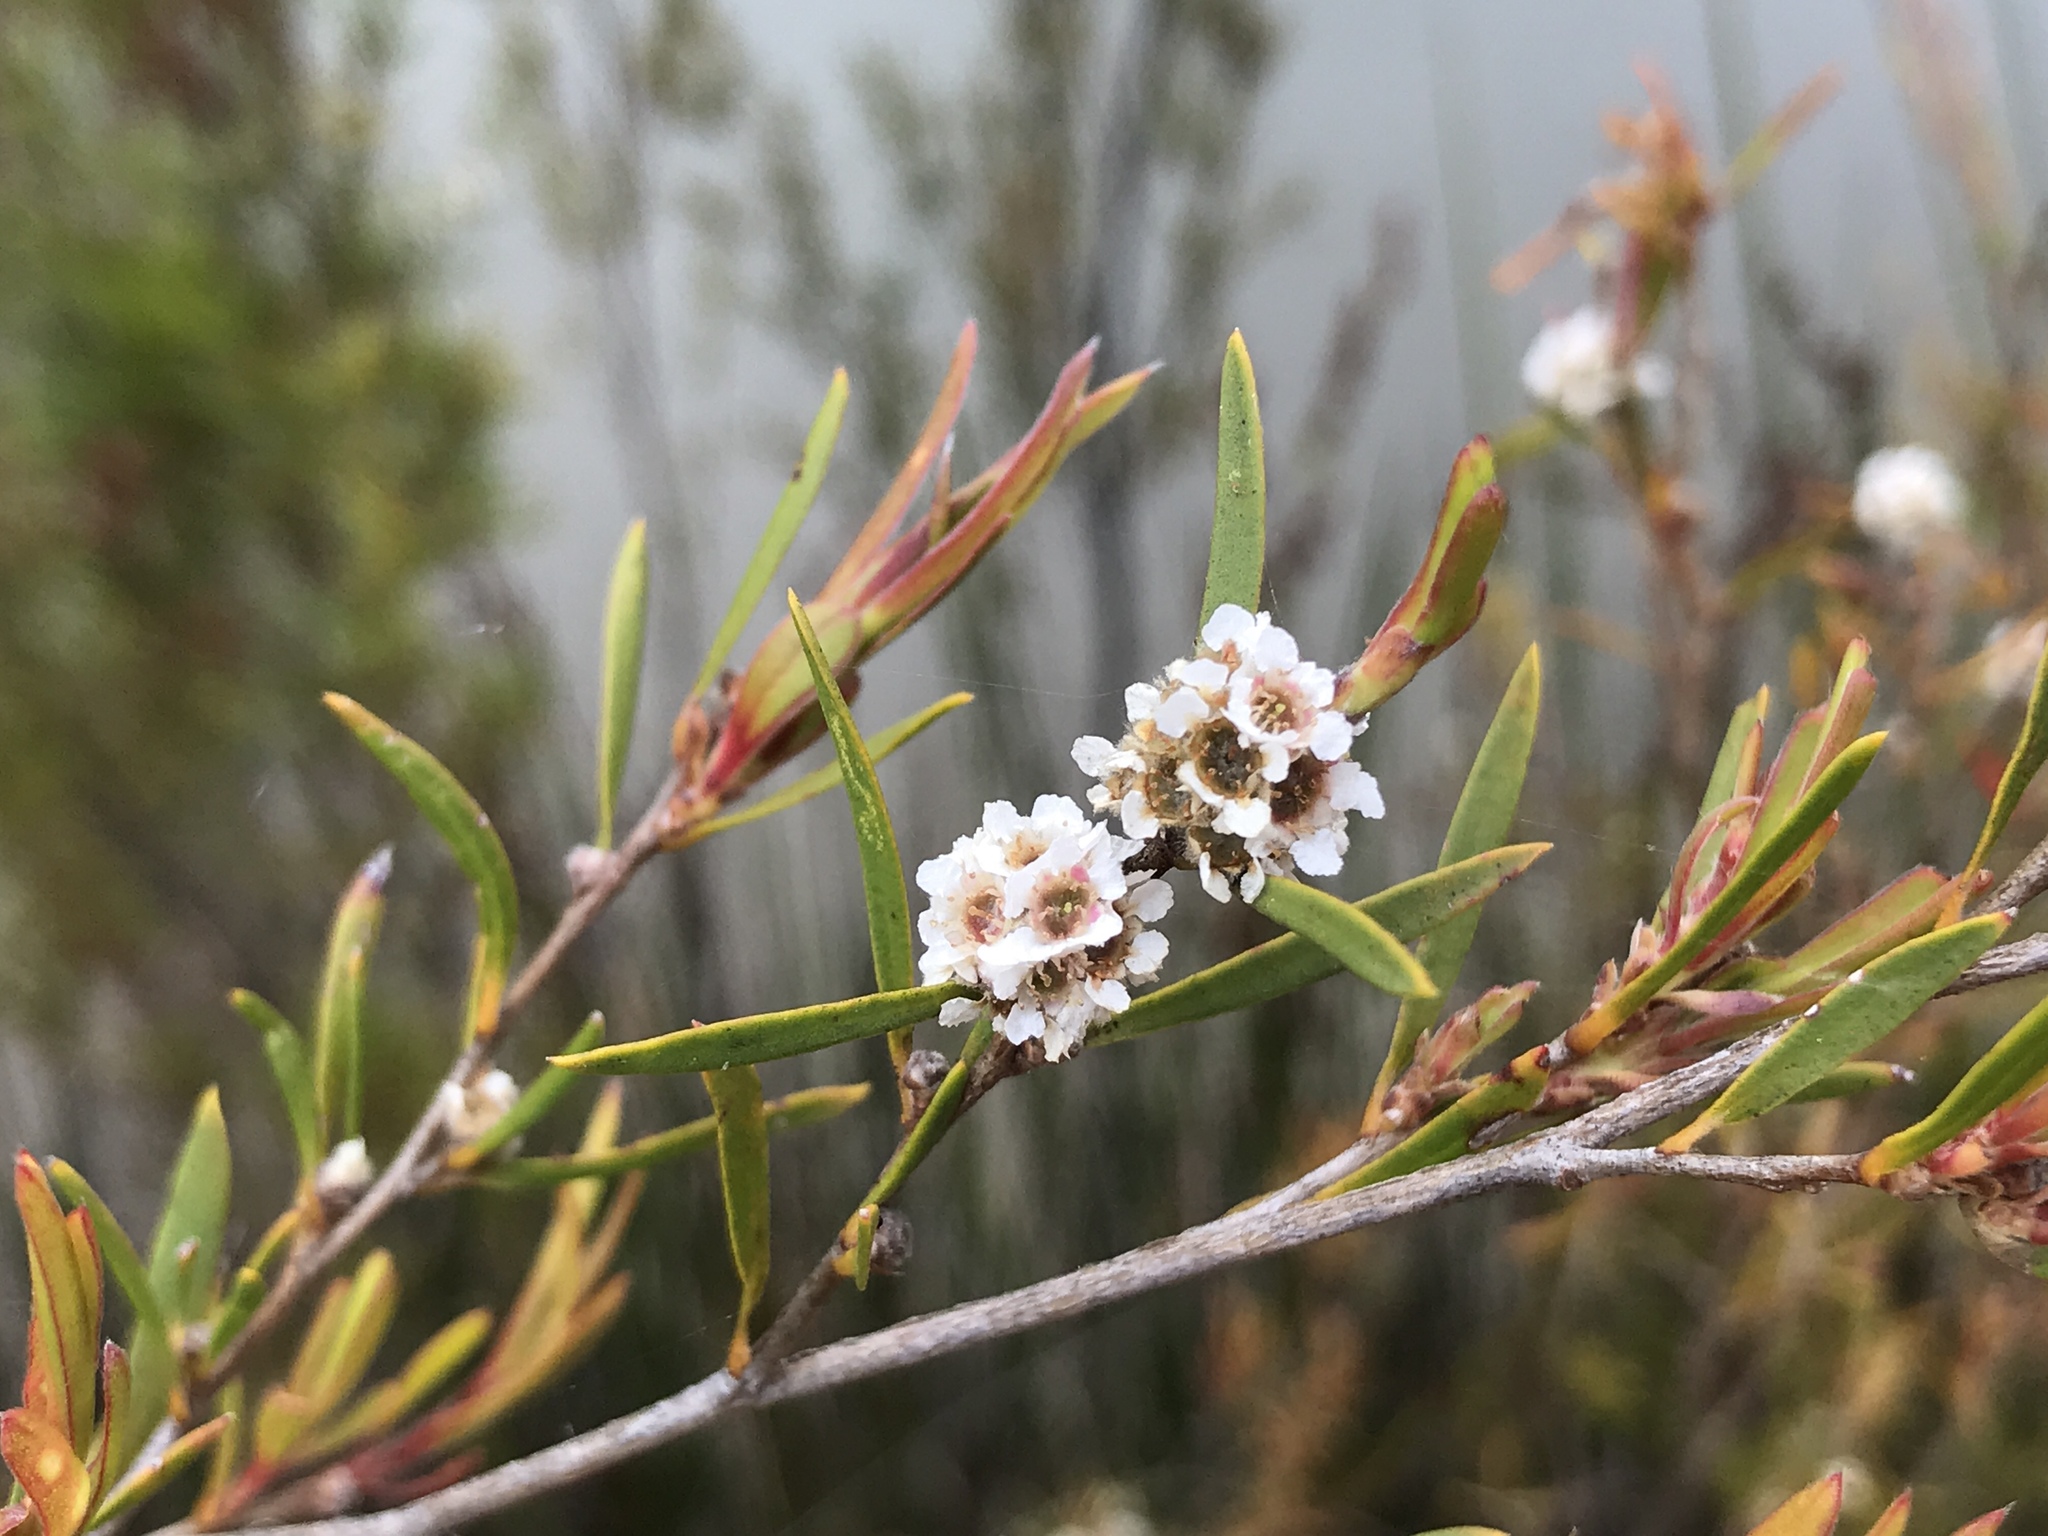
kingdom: Plantae
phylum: Tracheophyta
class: Magnoliopsida
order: Myrtales
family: Myrtaceae
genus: Taxandria
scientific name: Taxandria linearifolia
